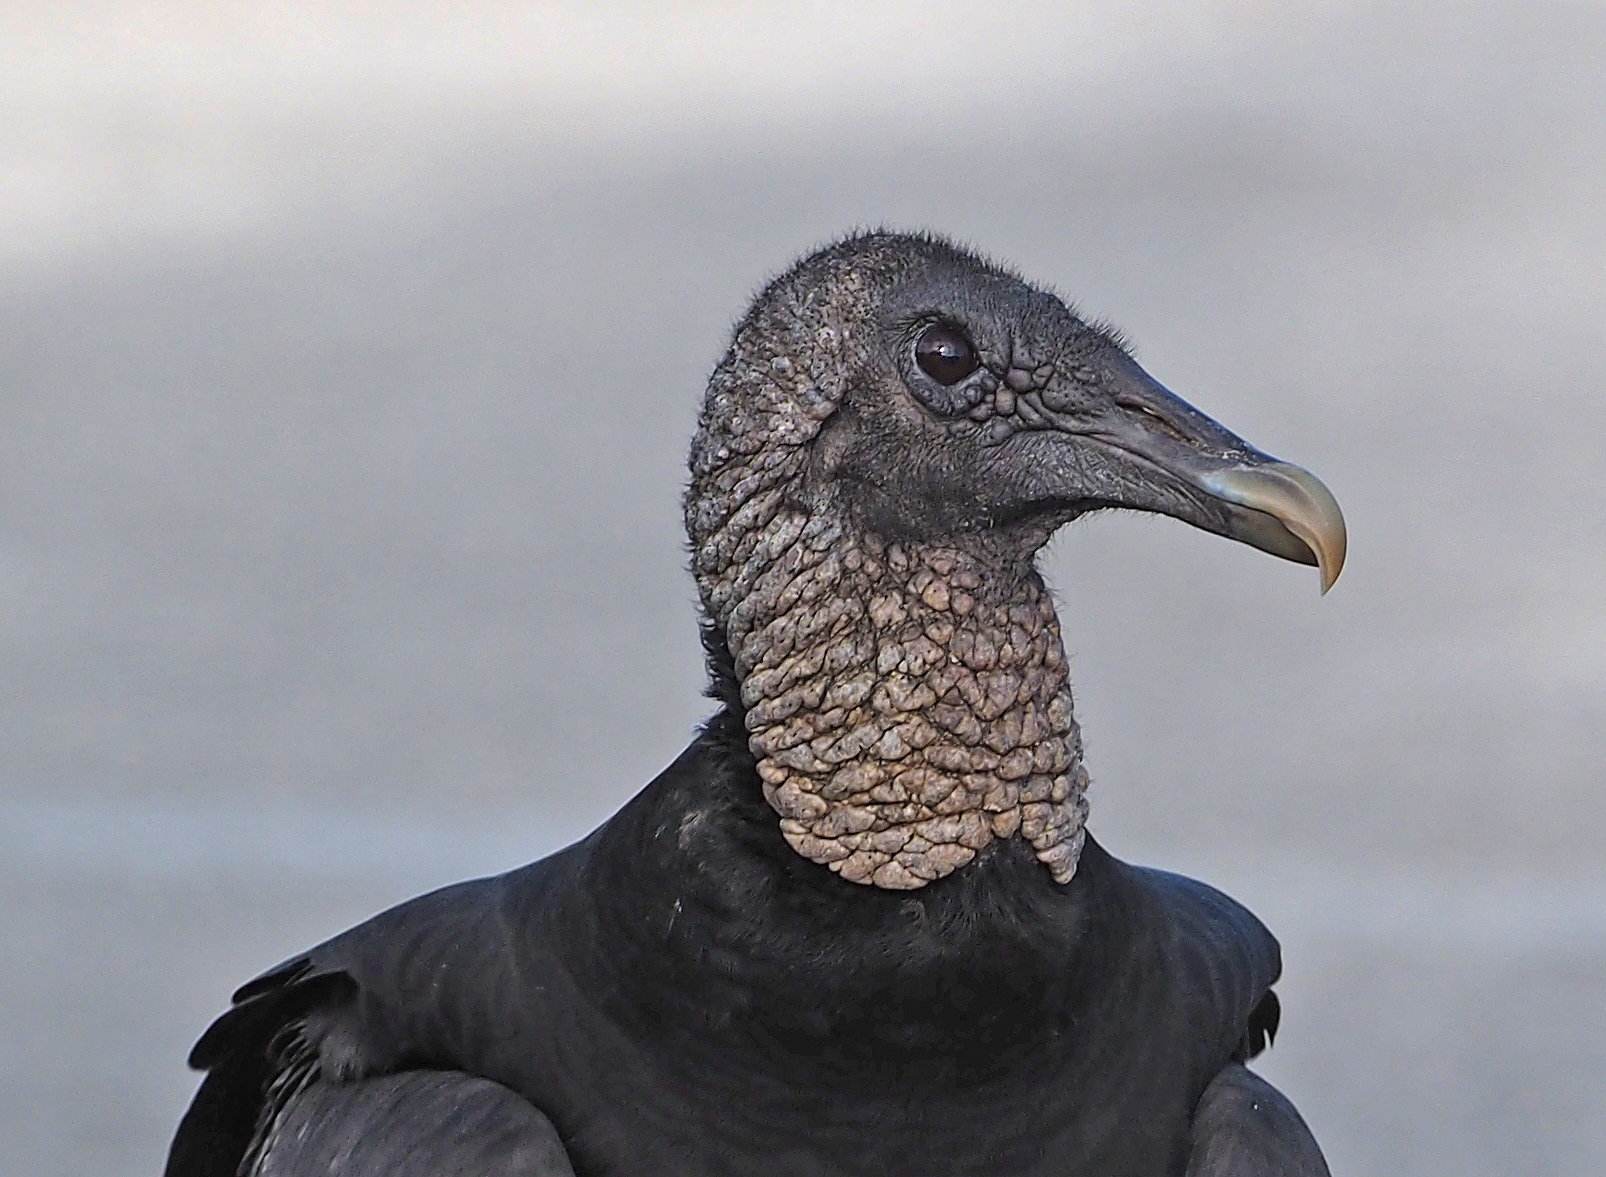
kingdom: Animalia
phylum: Chordata
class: Aves
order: Accipitriformes
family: Cathartidae
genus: Coragyps
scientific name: Coragyps atratus
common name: Black vulture
